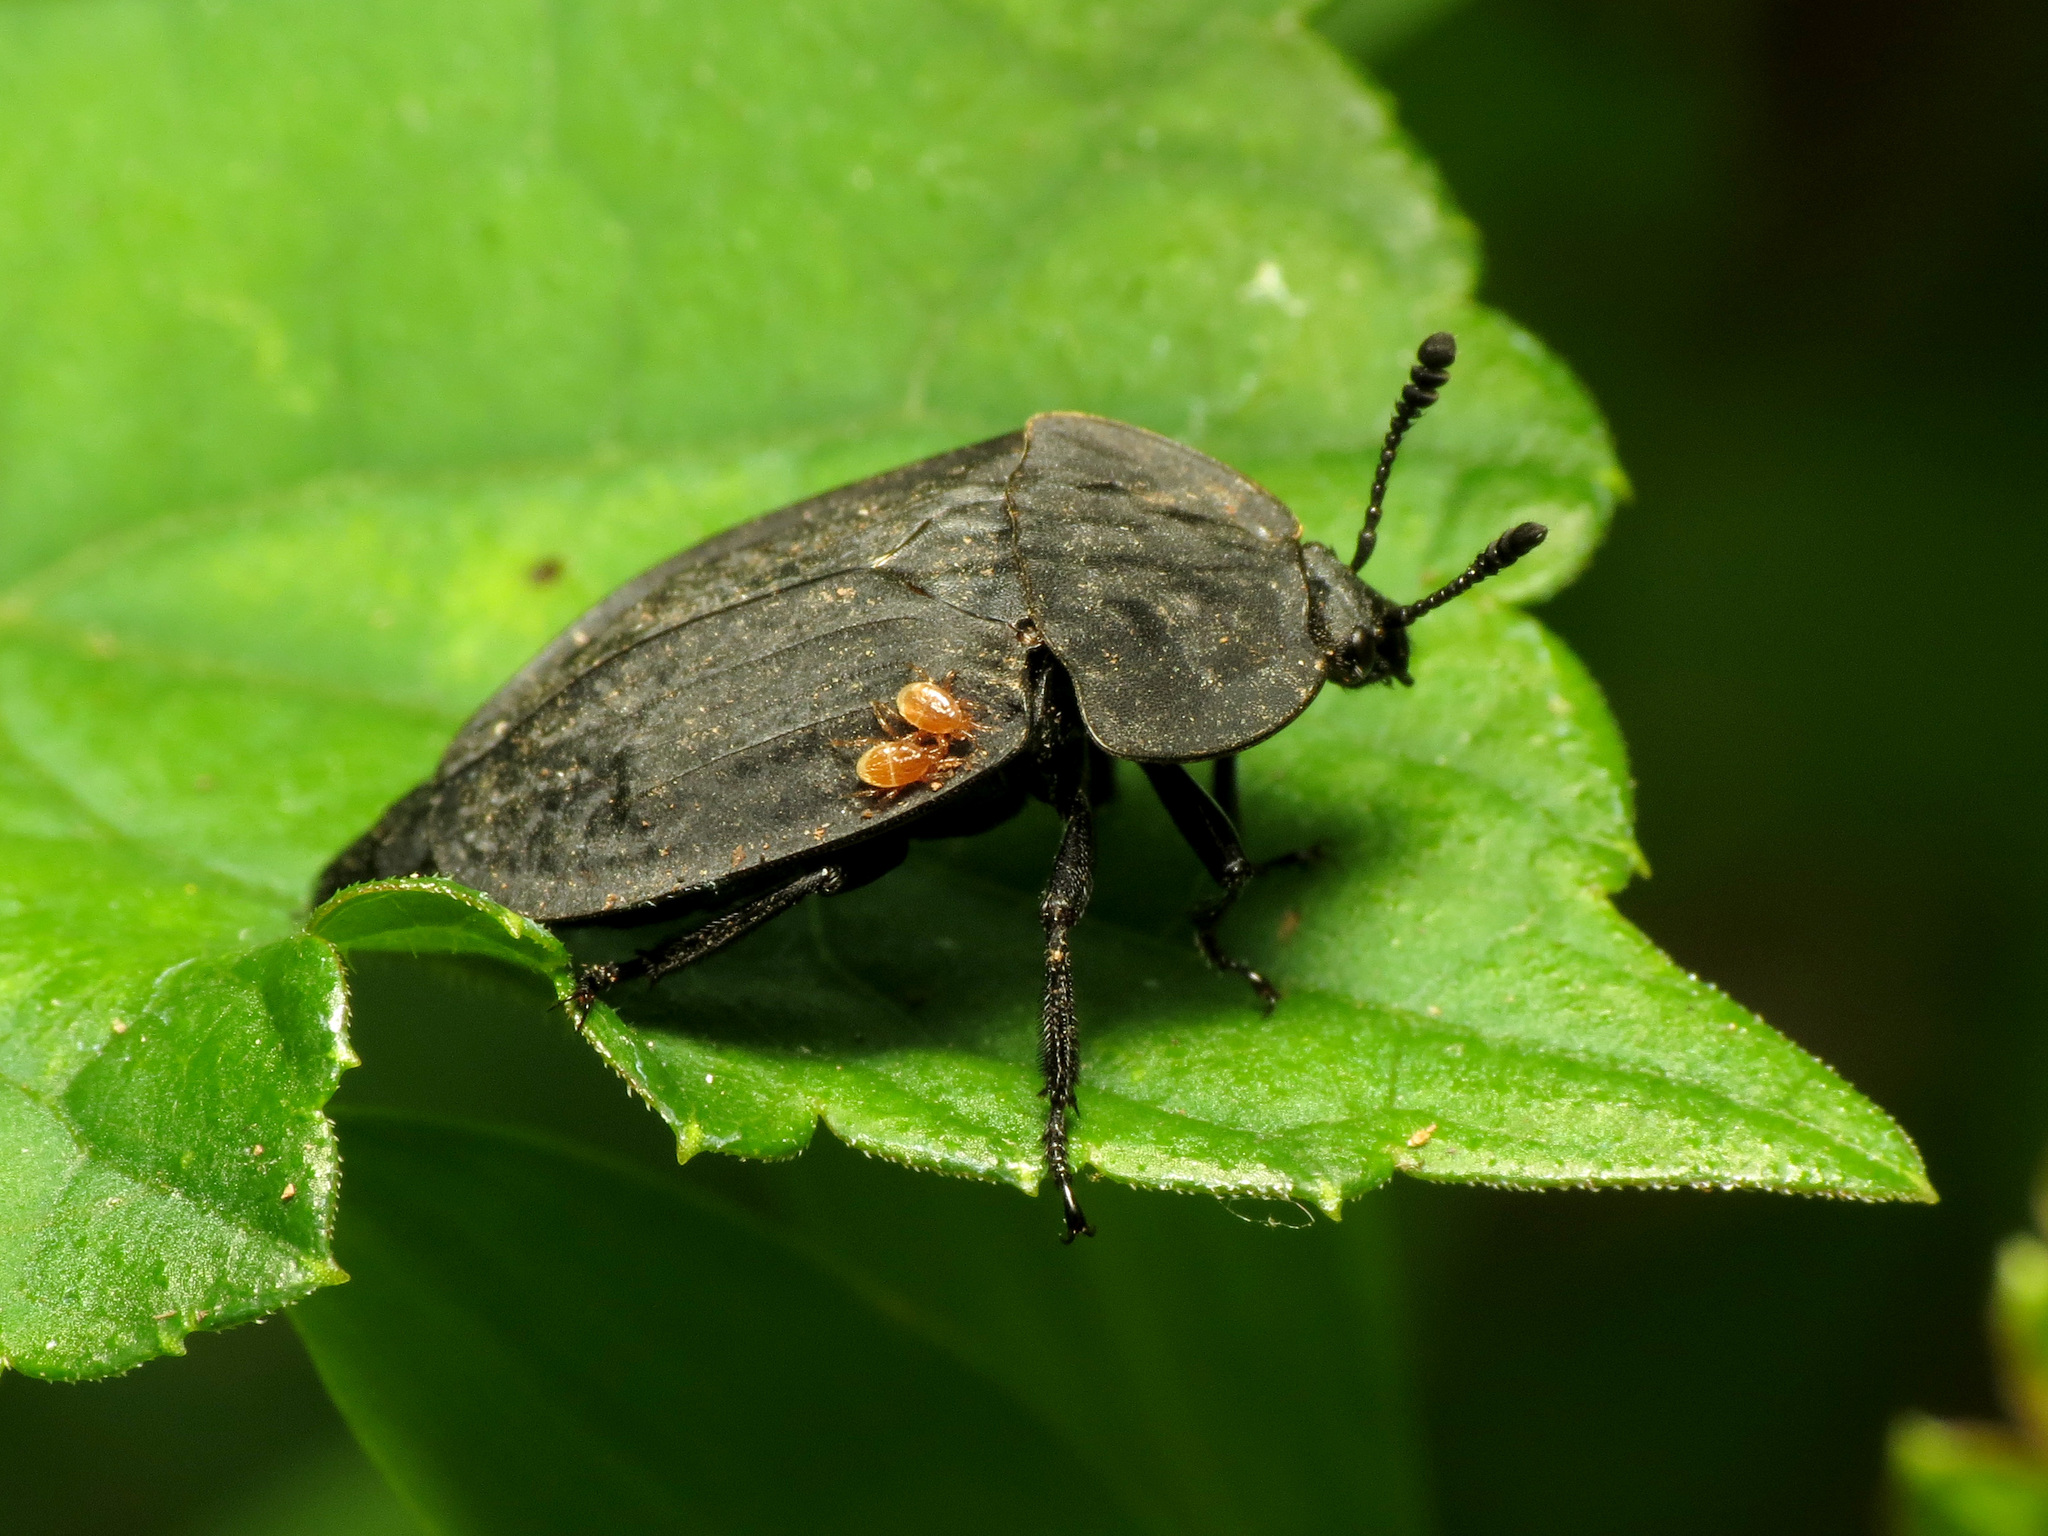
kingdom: Animalia
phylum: Arthropoda
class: Insecta
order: Coleoptera
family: Staphylinidae
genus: Oiceoptoma
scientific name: Oiceoptoma inaequale
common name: Ridged carrion beetle
